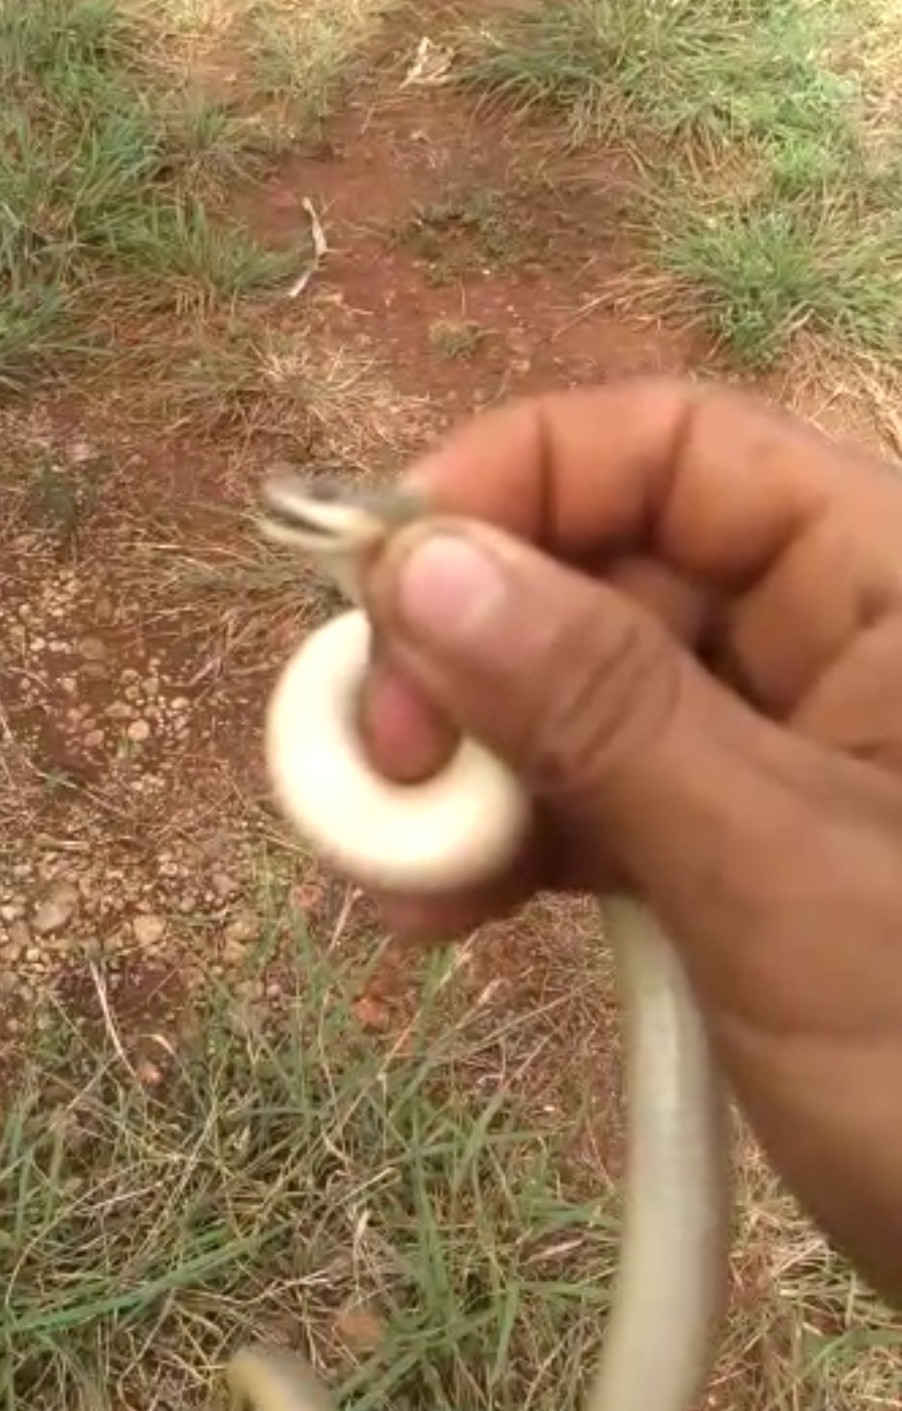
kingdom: Animalia
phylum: Chordata
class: Squamata
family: Colubridae
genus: Stenorrhina
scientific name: Stenorrhina freminvillei
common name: Blood snake
